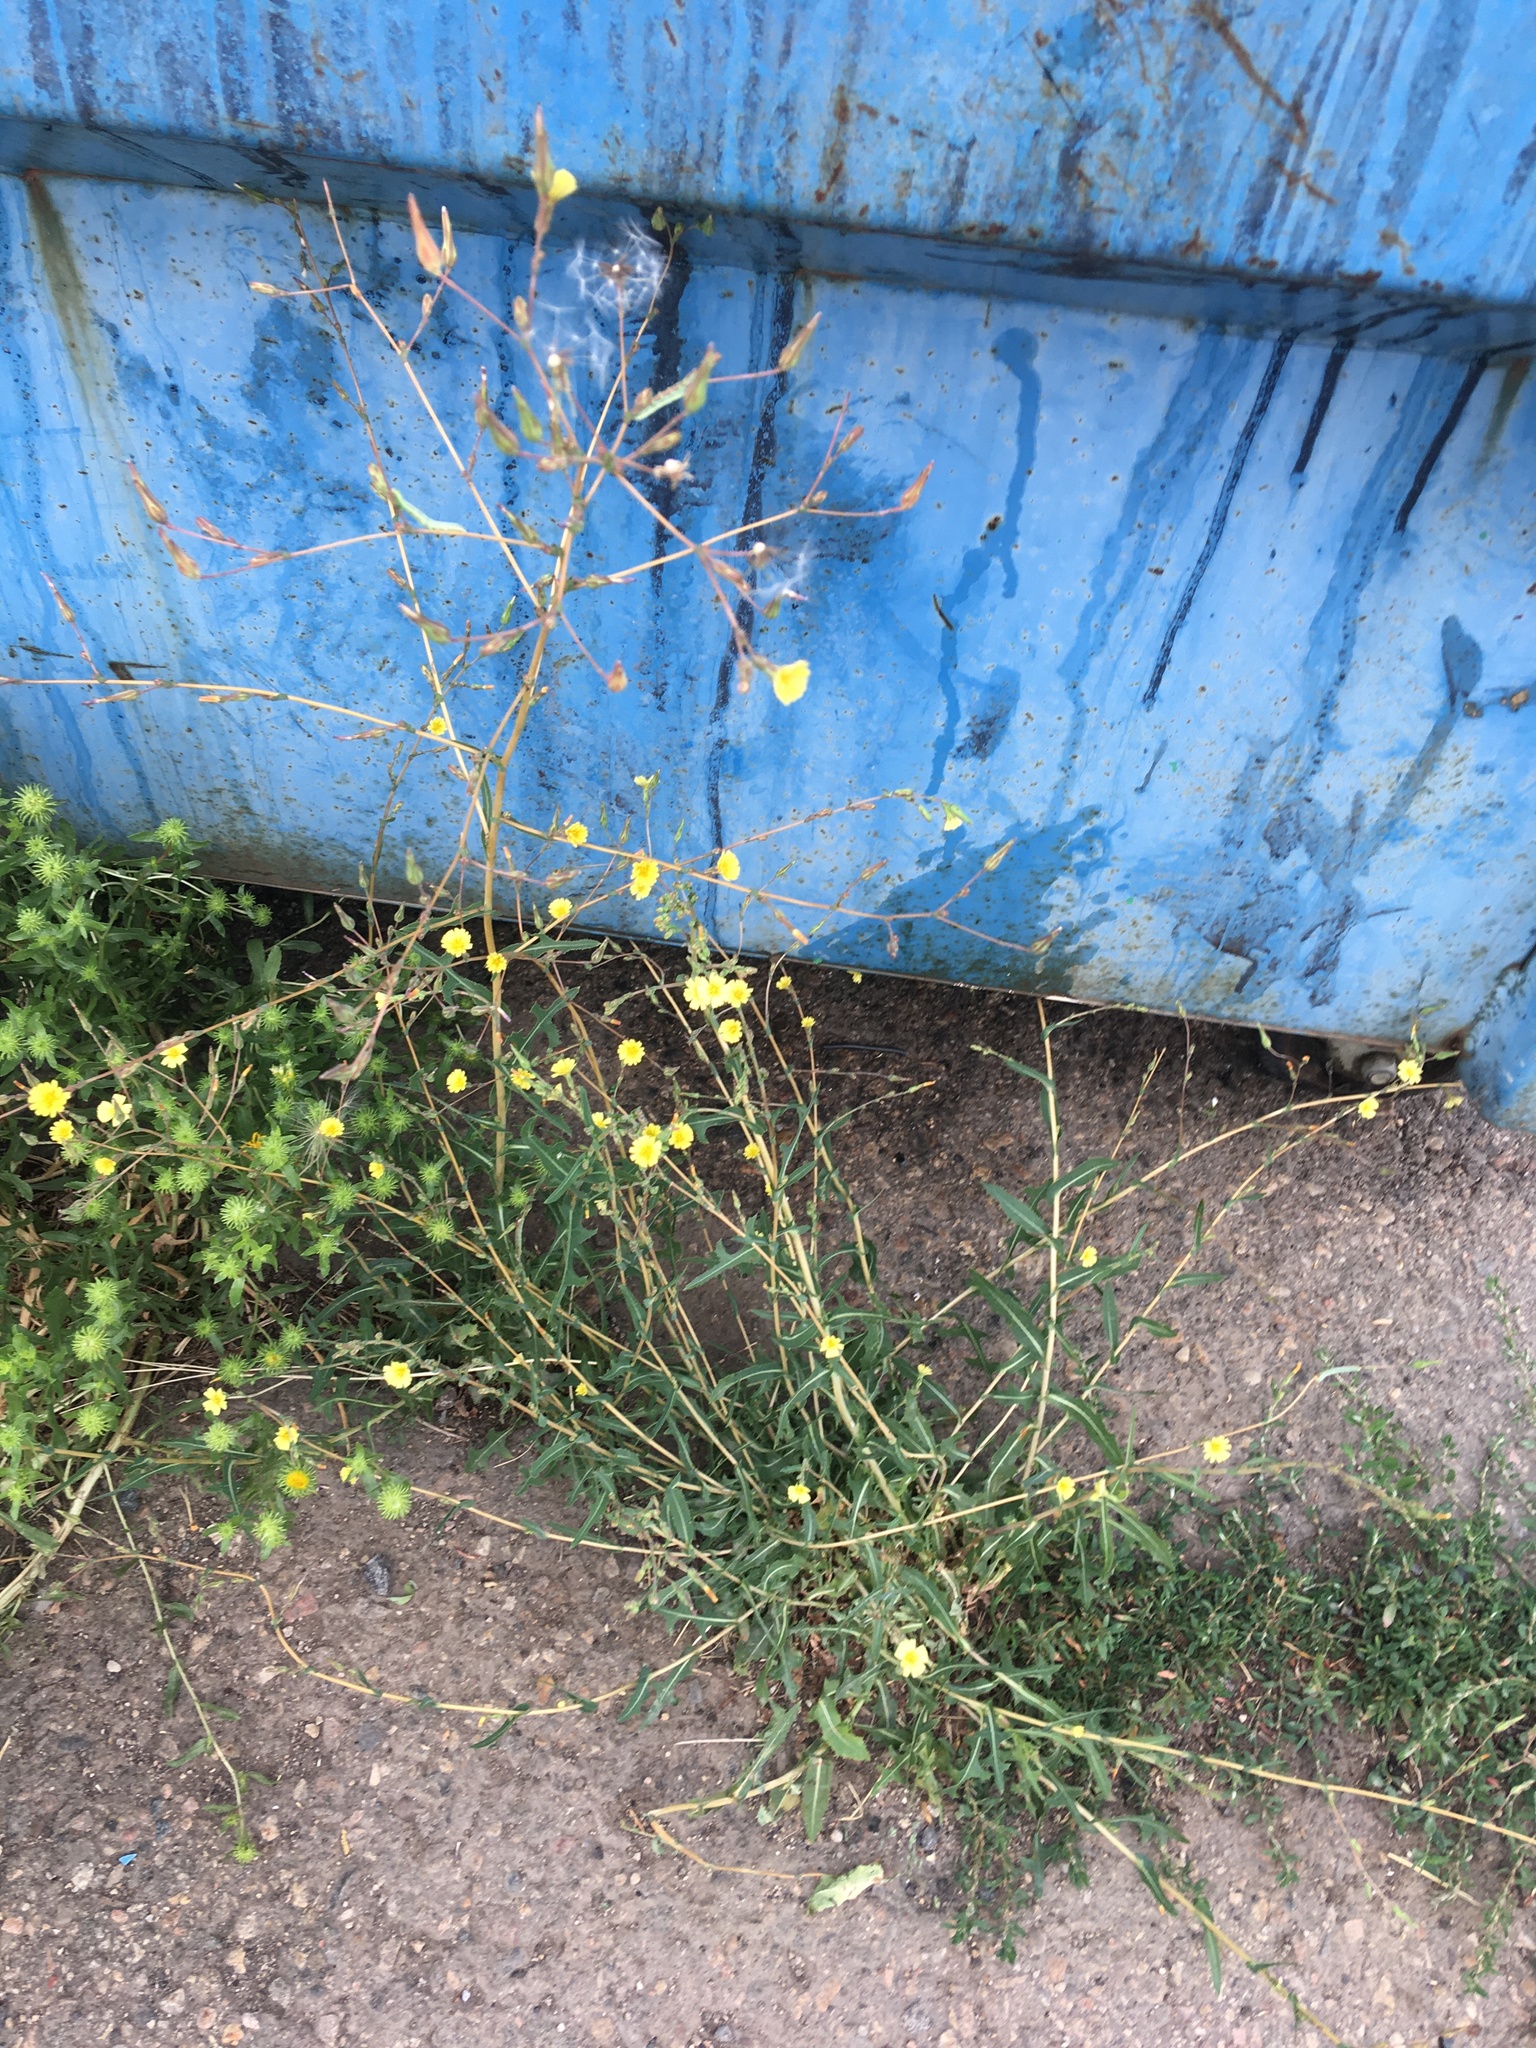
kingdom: Plantae
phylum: Tracheophyta
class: Magnoliopsida
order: Asterales
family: Asteraceae
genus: Lactuca
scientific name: Lactuca serriola
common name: Prickly lettuce
